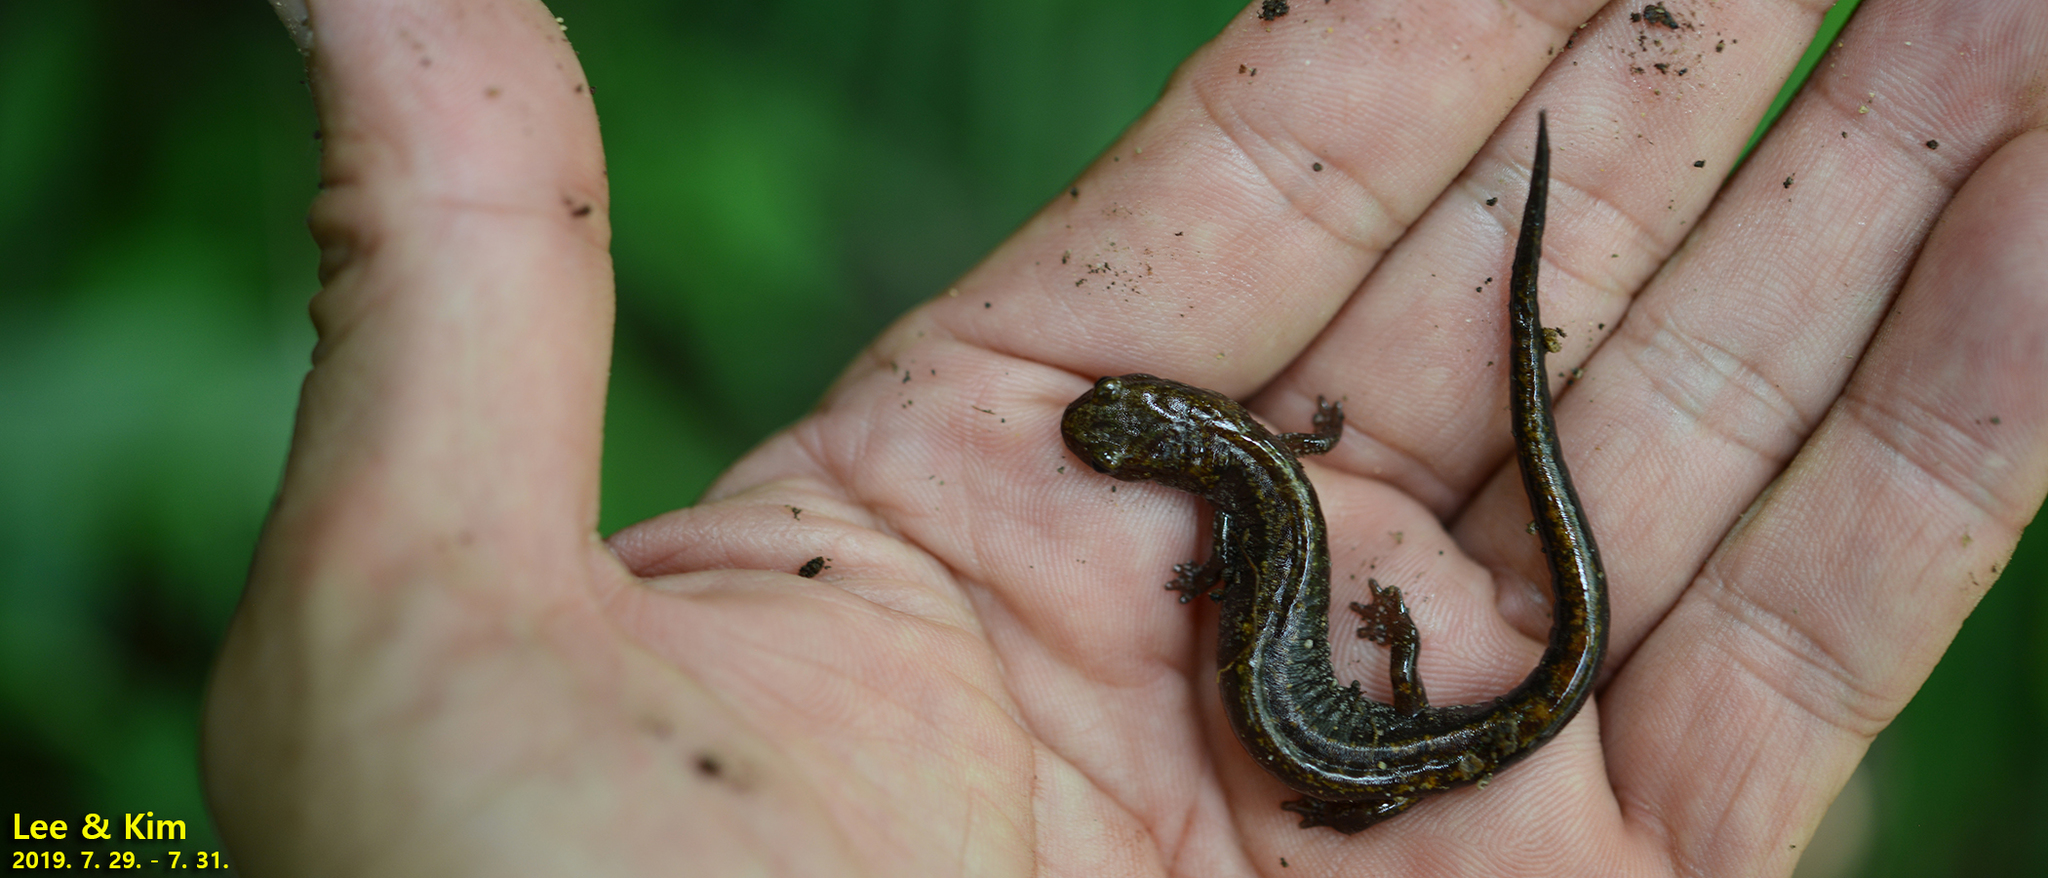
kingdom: Animalia
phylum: Chordata
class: Amphibia
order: Caudata
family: Plethodontidae
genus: Karsenia
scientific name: Karsenia koreana
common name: Korean crevice salamander
